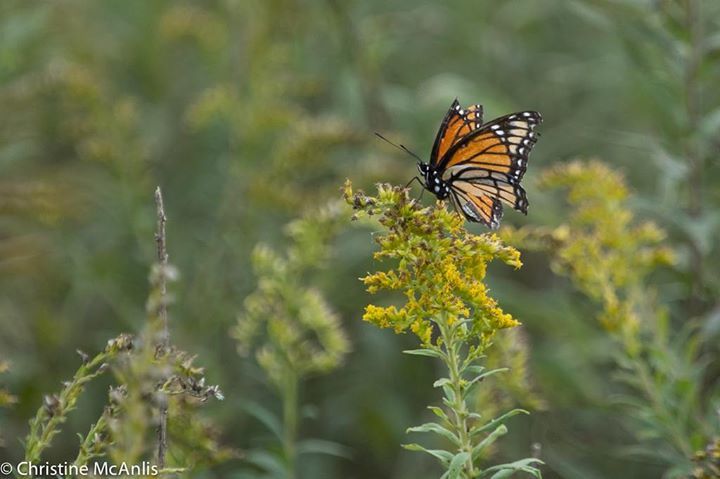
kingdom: Animalia
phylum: Arthropoda
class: Insecta
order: Lepidoptera
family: Nymphalidae
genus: Limenitis
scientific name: Limenitis archippus
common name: Viceroy
